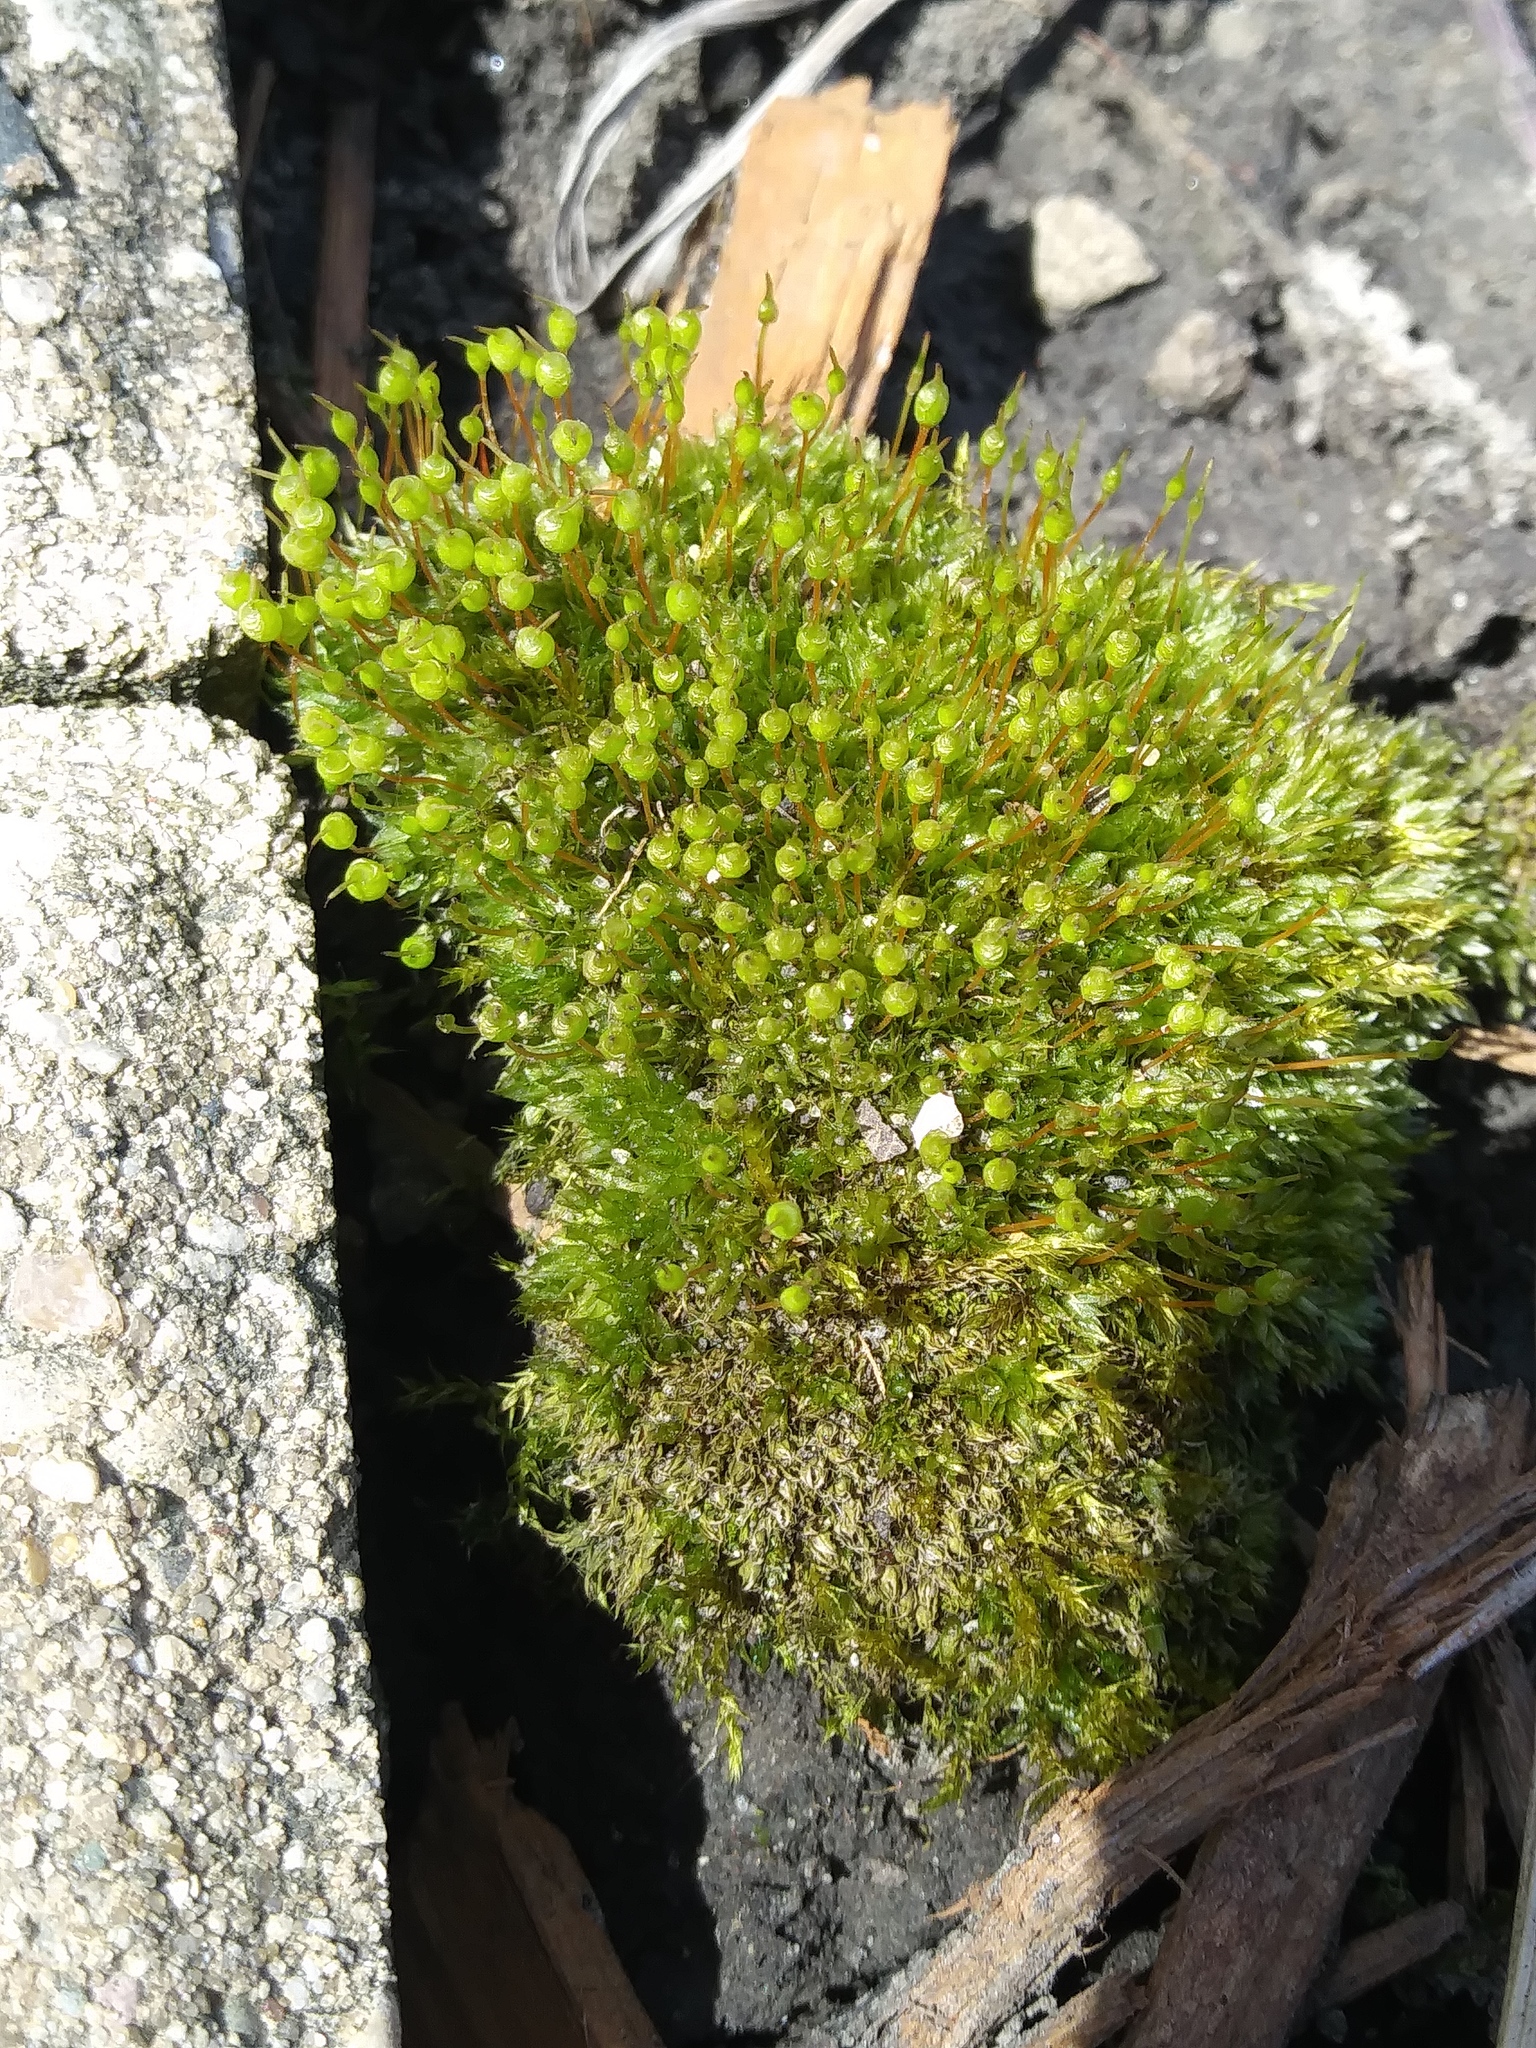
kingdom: Plantae
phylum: Bryophyta
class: Bryopsida
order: Funariales
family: Funariaceae
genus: Physcomitrium
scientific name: Physcomitrium pyriforme
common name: Common bladder-moss
